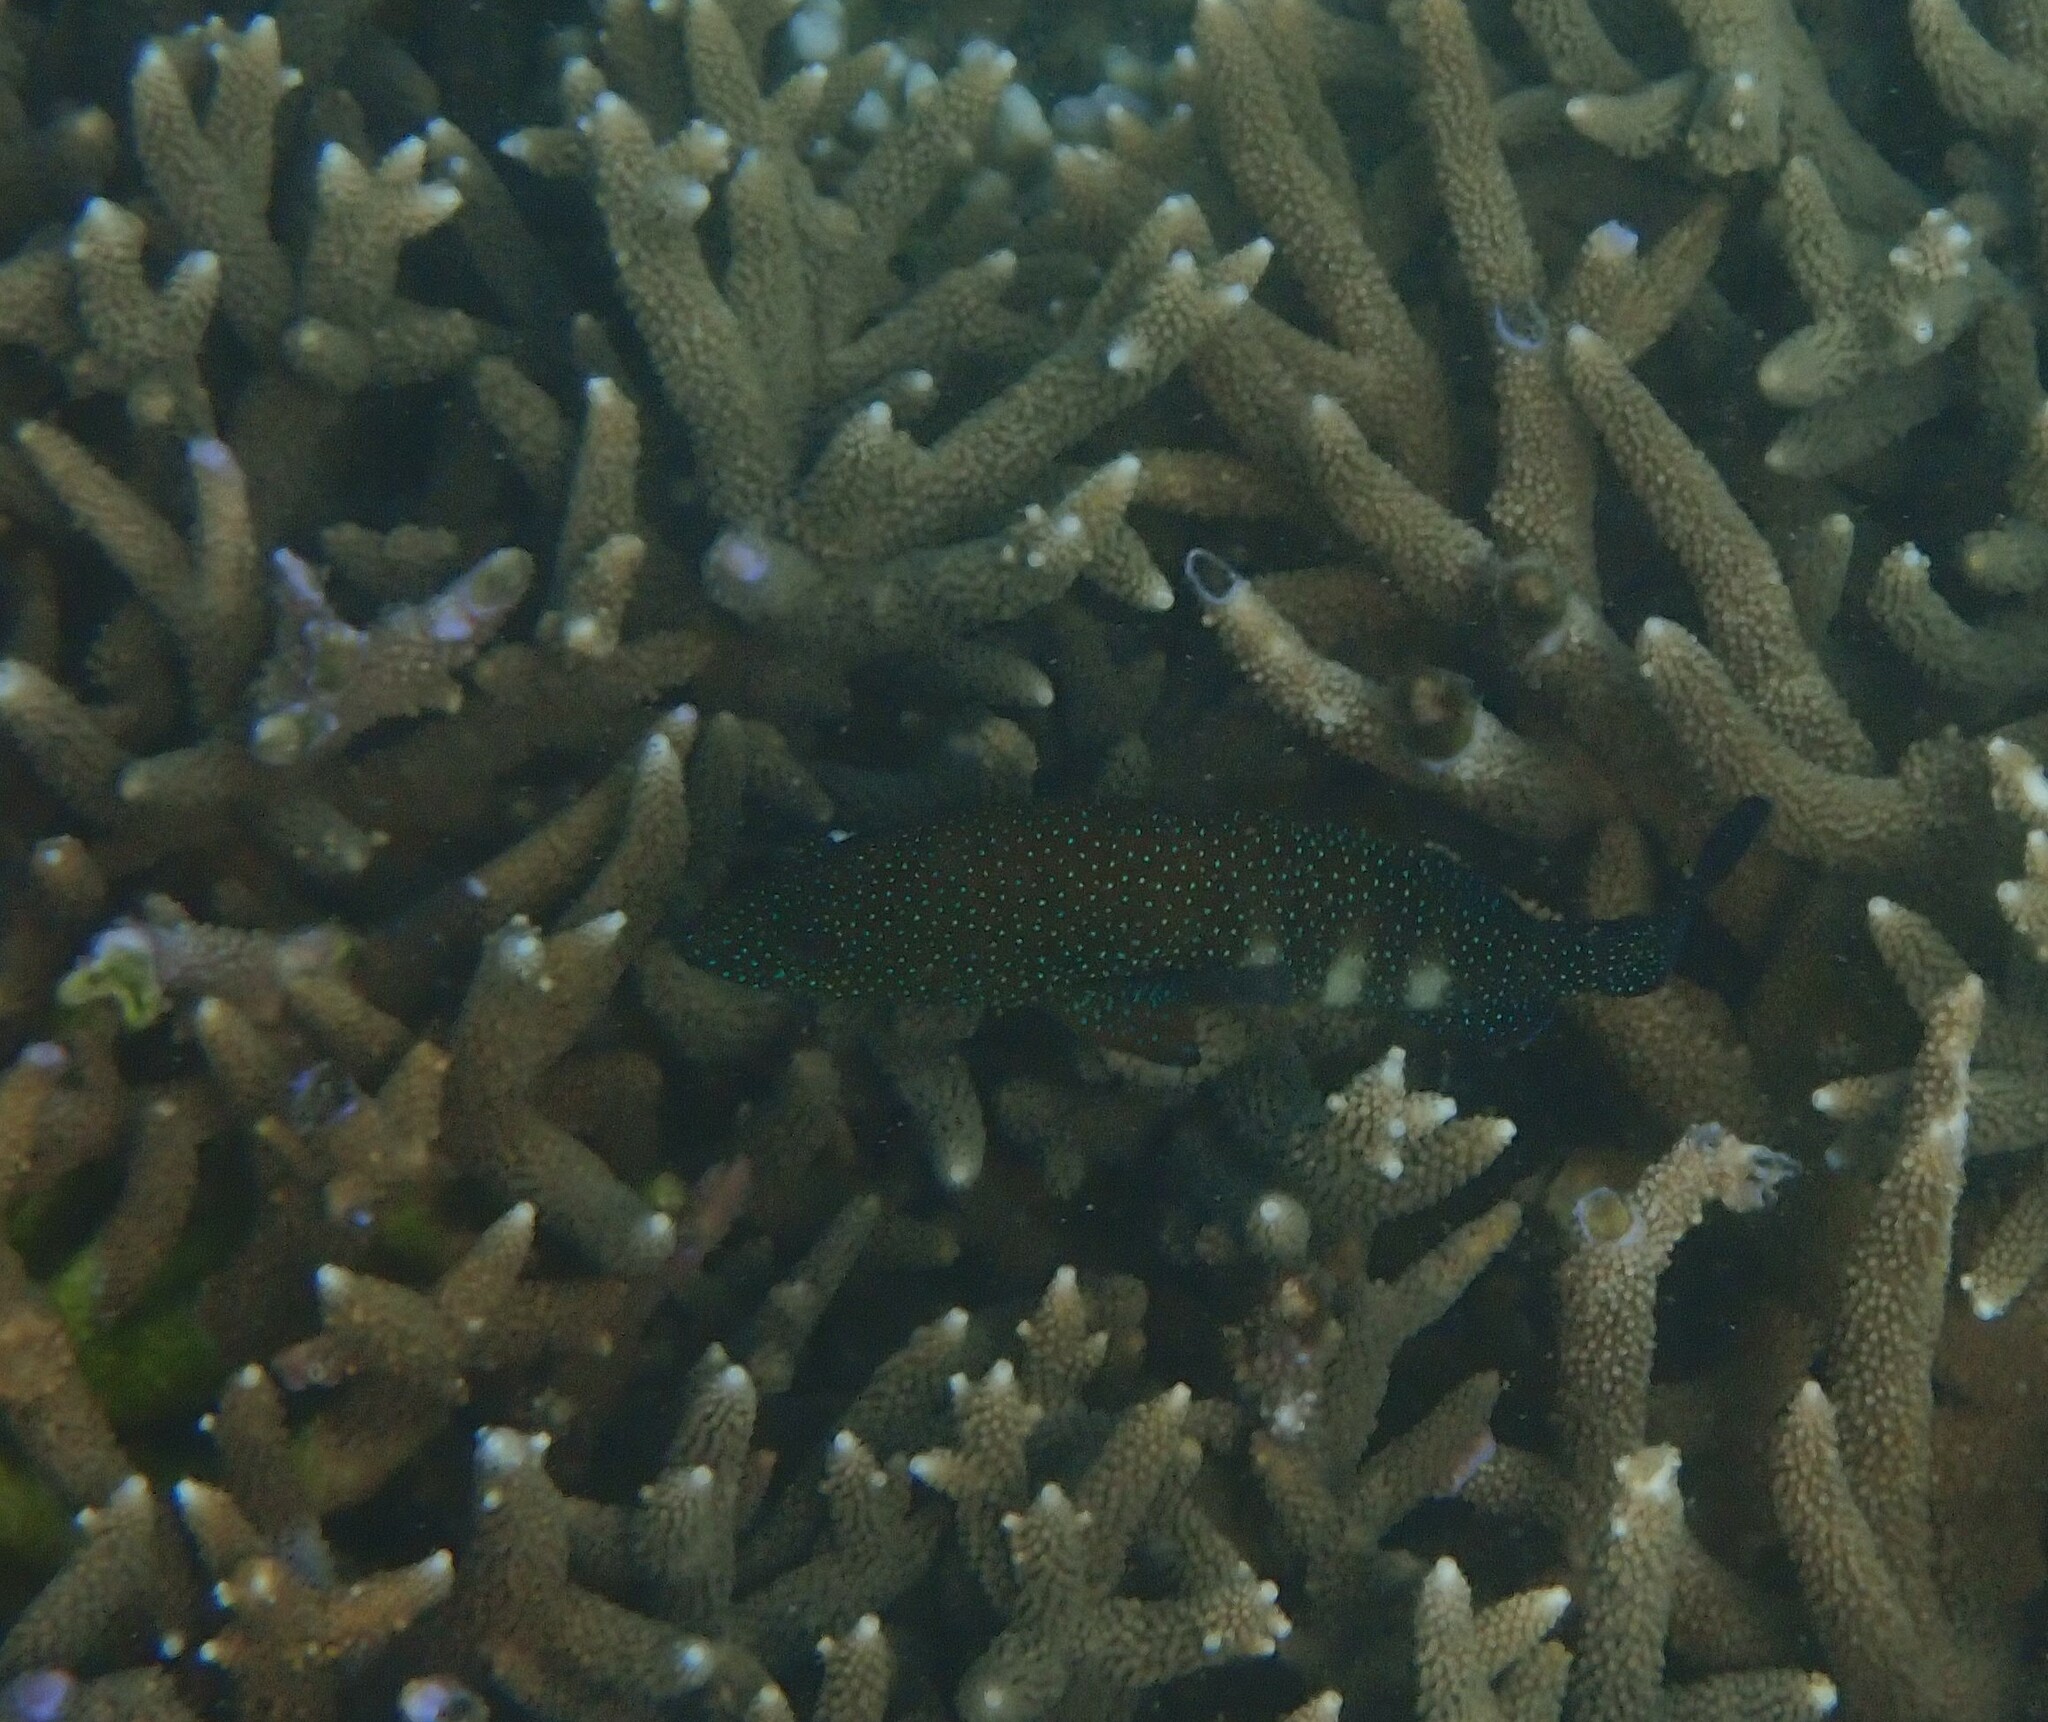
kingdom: Animalia
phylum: Chordata
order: Perciformes
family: Serranidae
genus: Cephalopholis
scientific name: Cephalopholis polyspila
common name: Starry grouper
